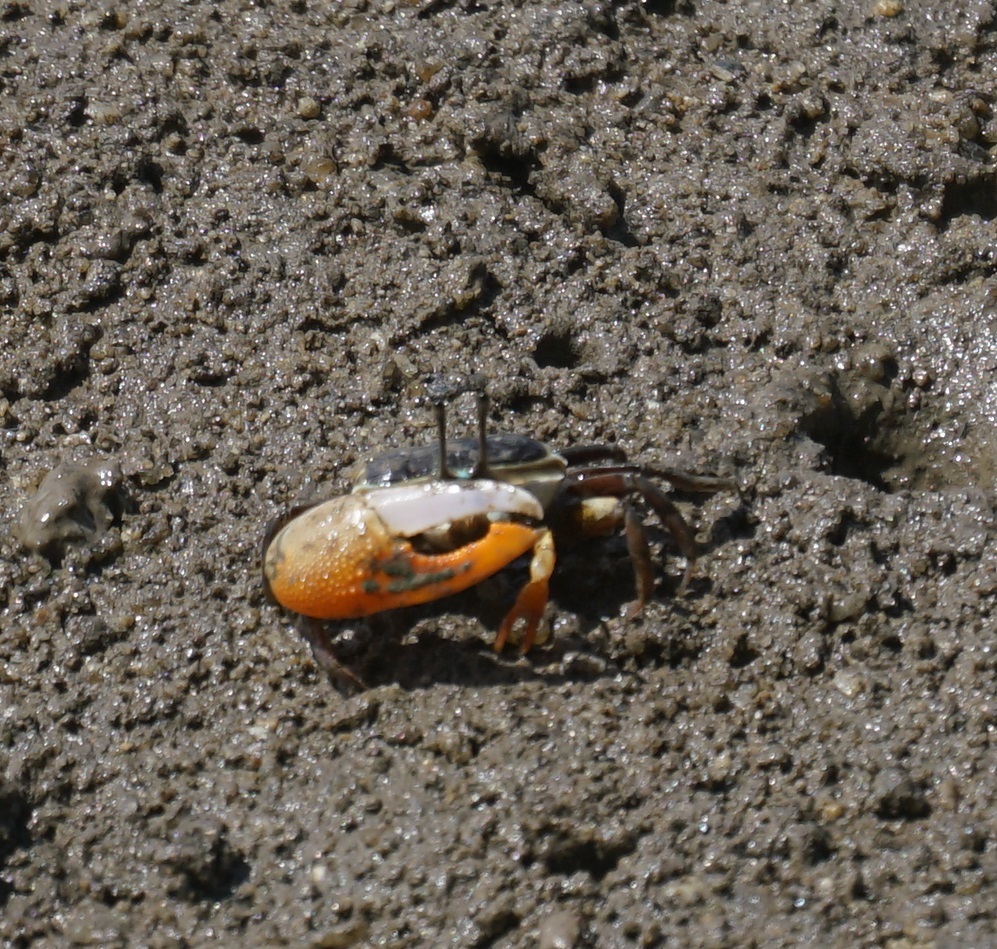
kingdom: Animalia
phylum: Arthropoda
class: Malacostraca
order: Decapoda
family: Ocypodidae
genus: Gelasimus
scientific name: Gelasimus vomeris
